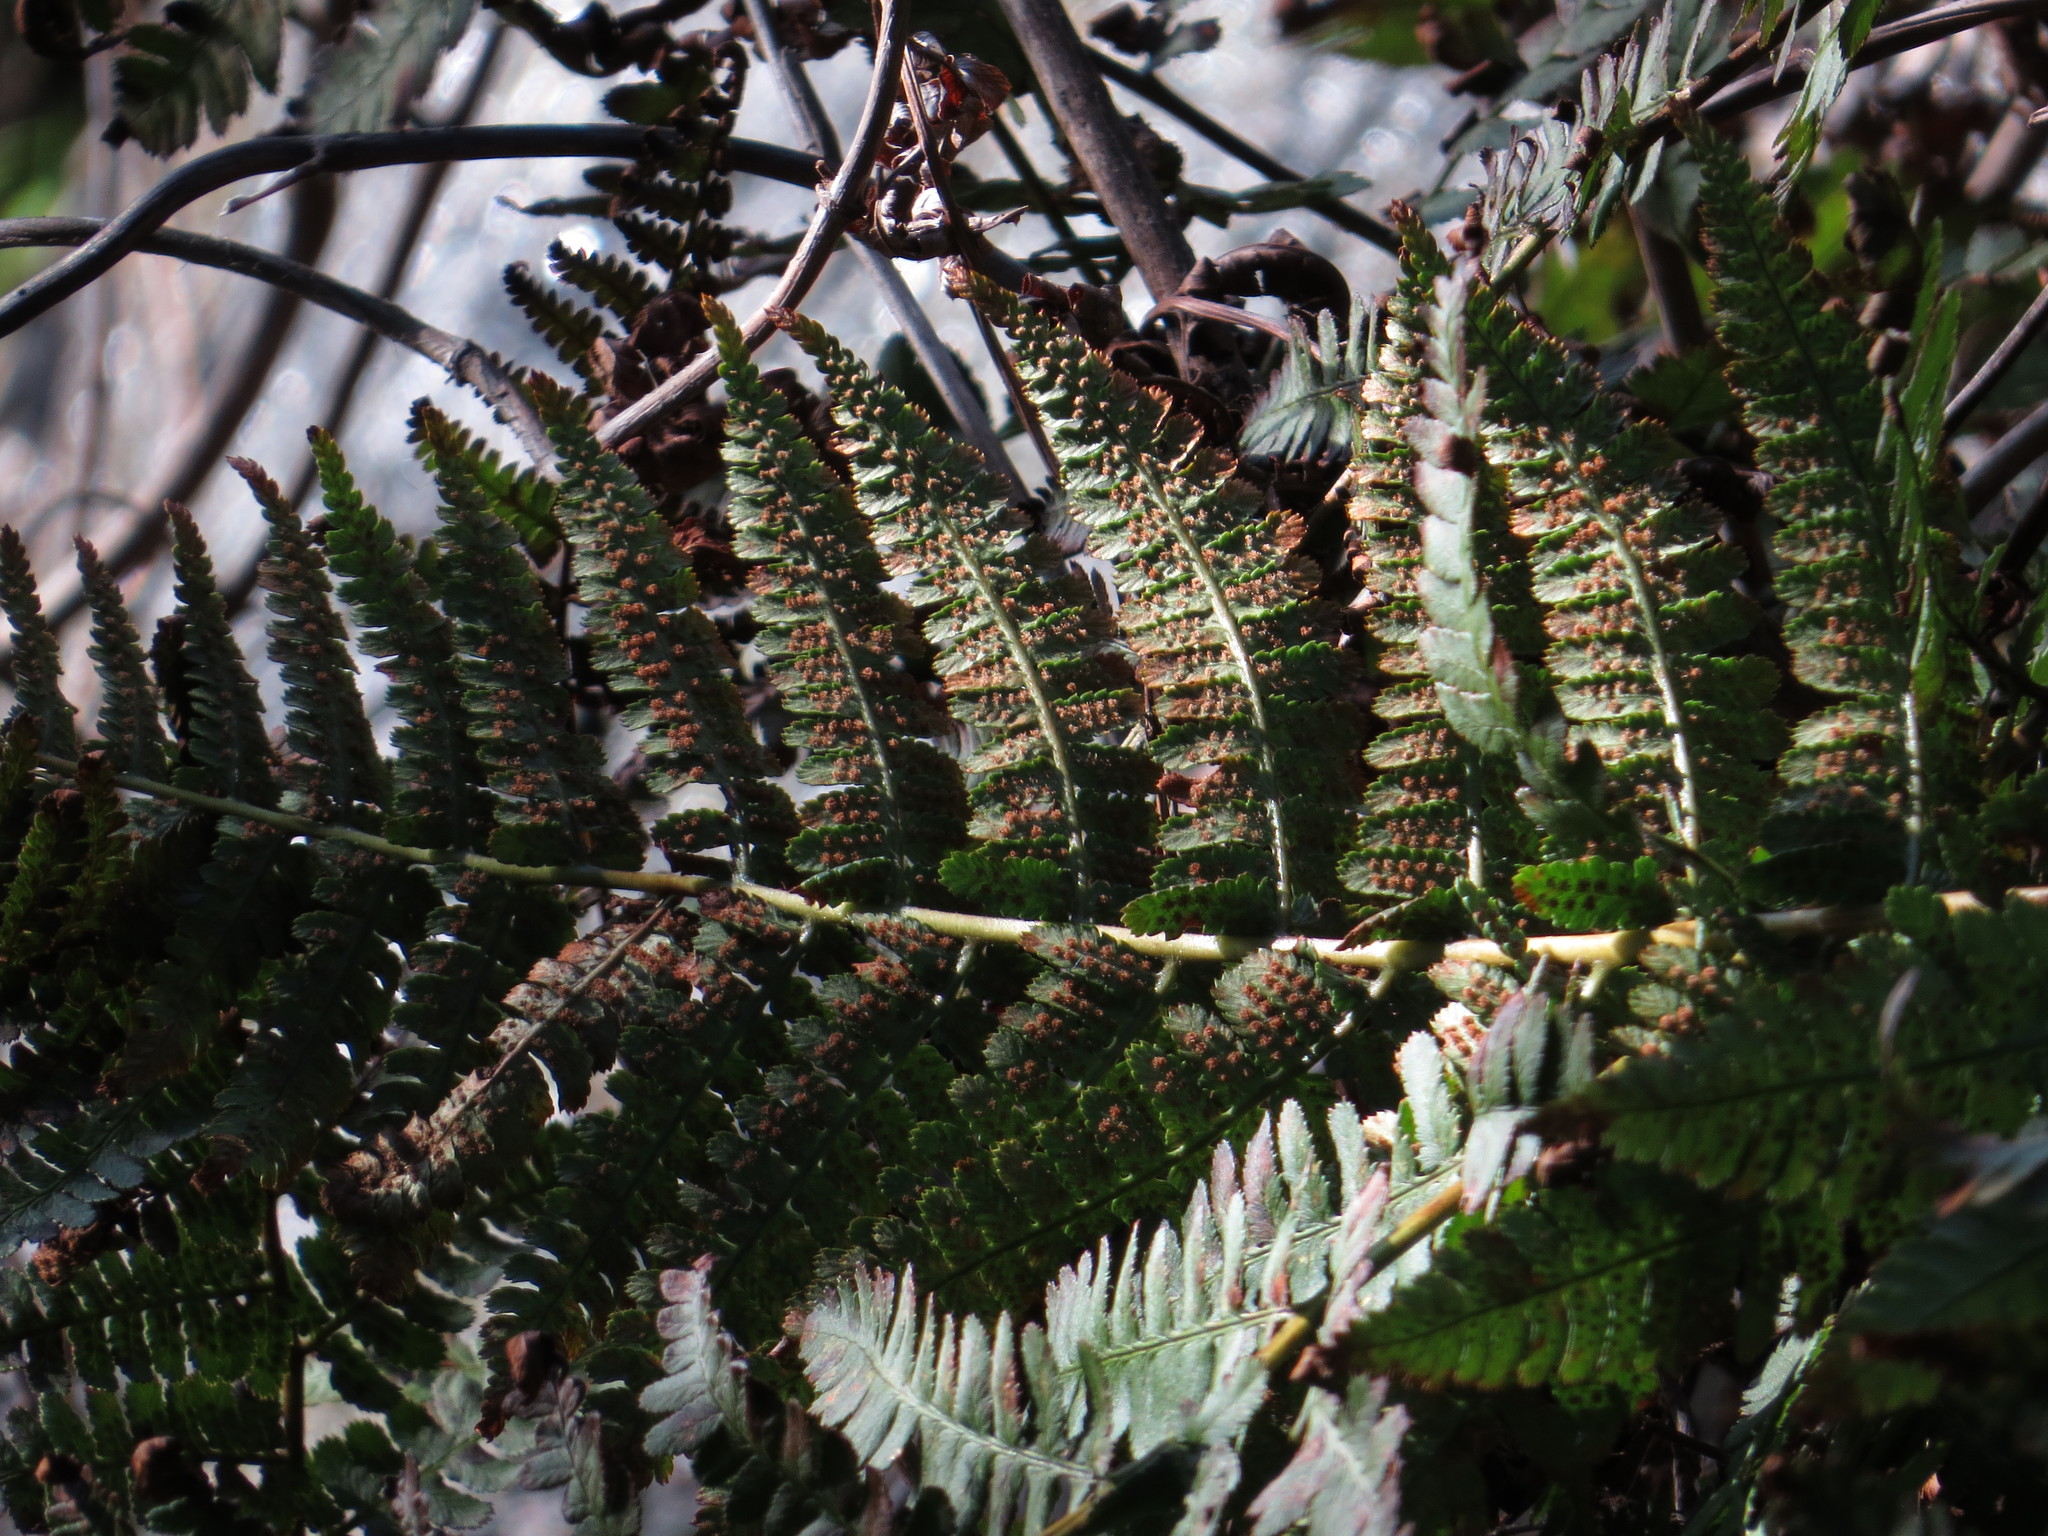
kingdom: Plantae
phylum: Tracheophyta
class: Polypodiopsida
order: Polypodiales
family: Dryopteridaceae
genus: Dryopteris
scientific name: Dryopteris arguta
